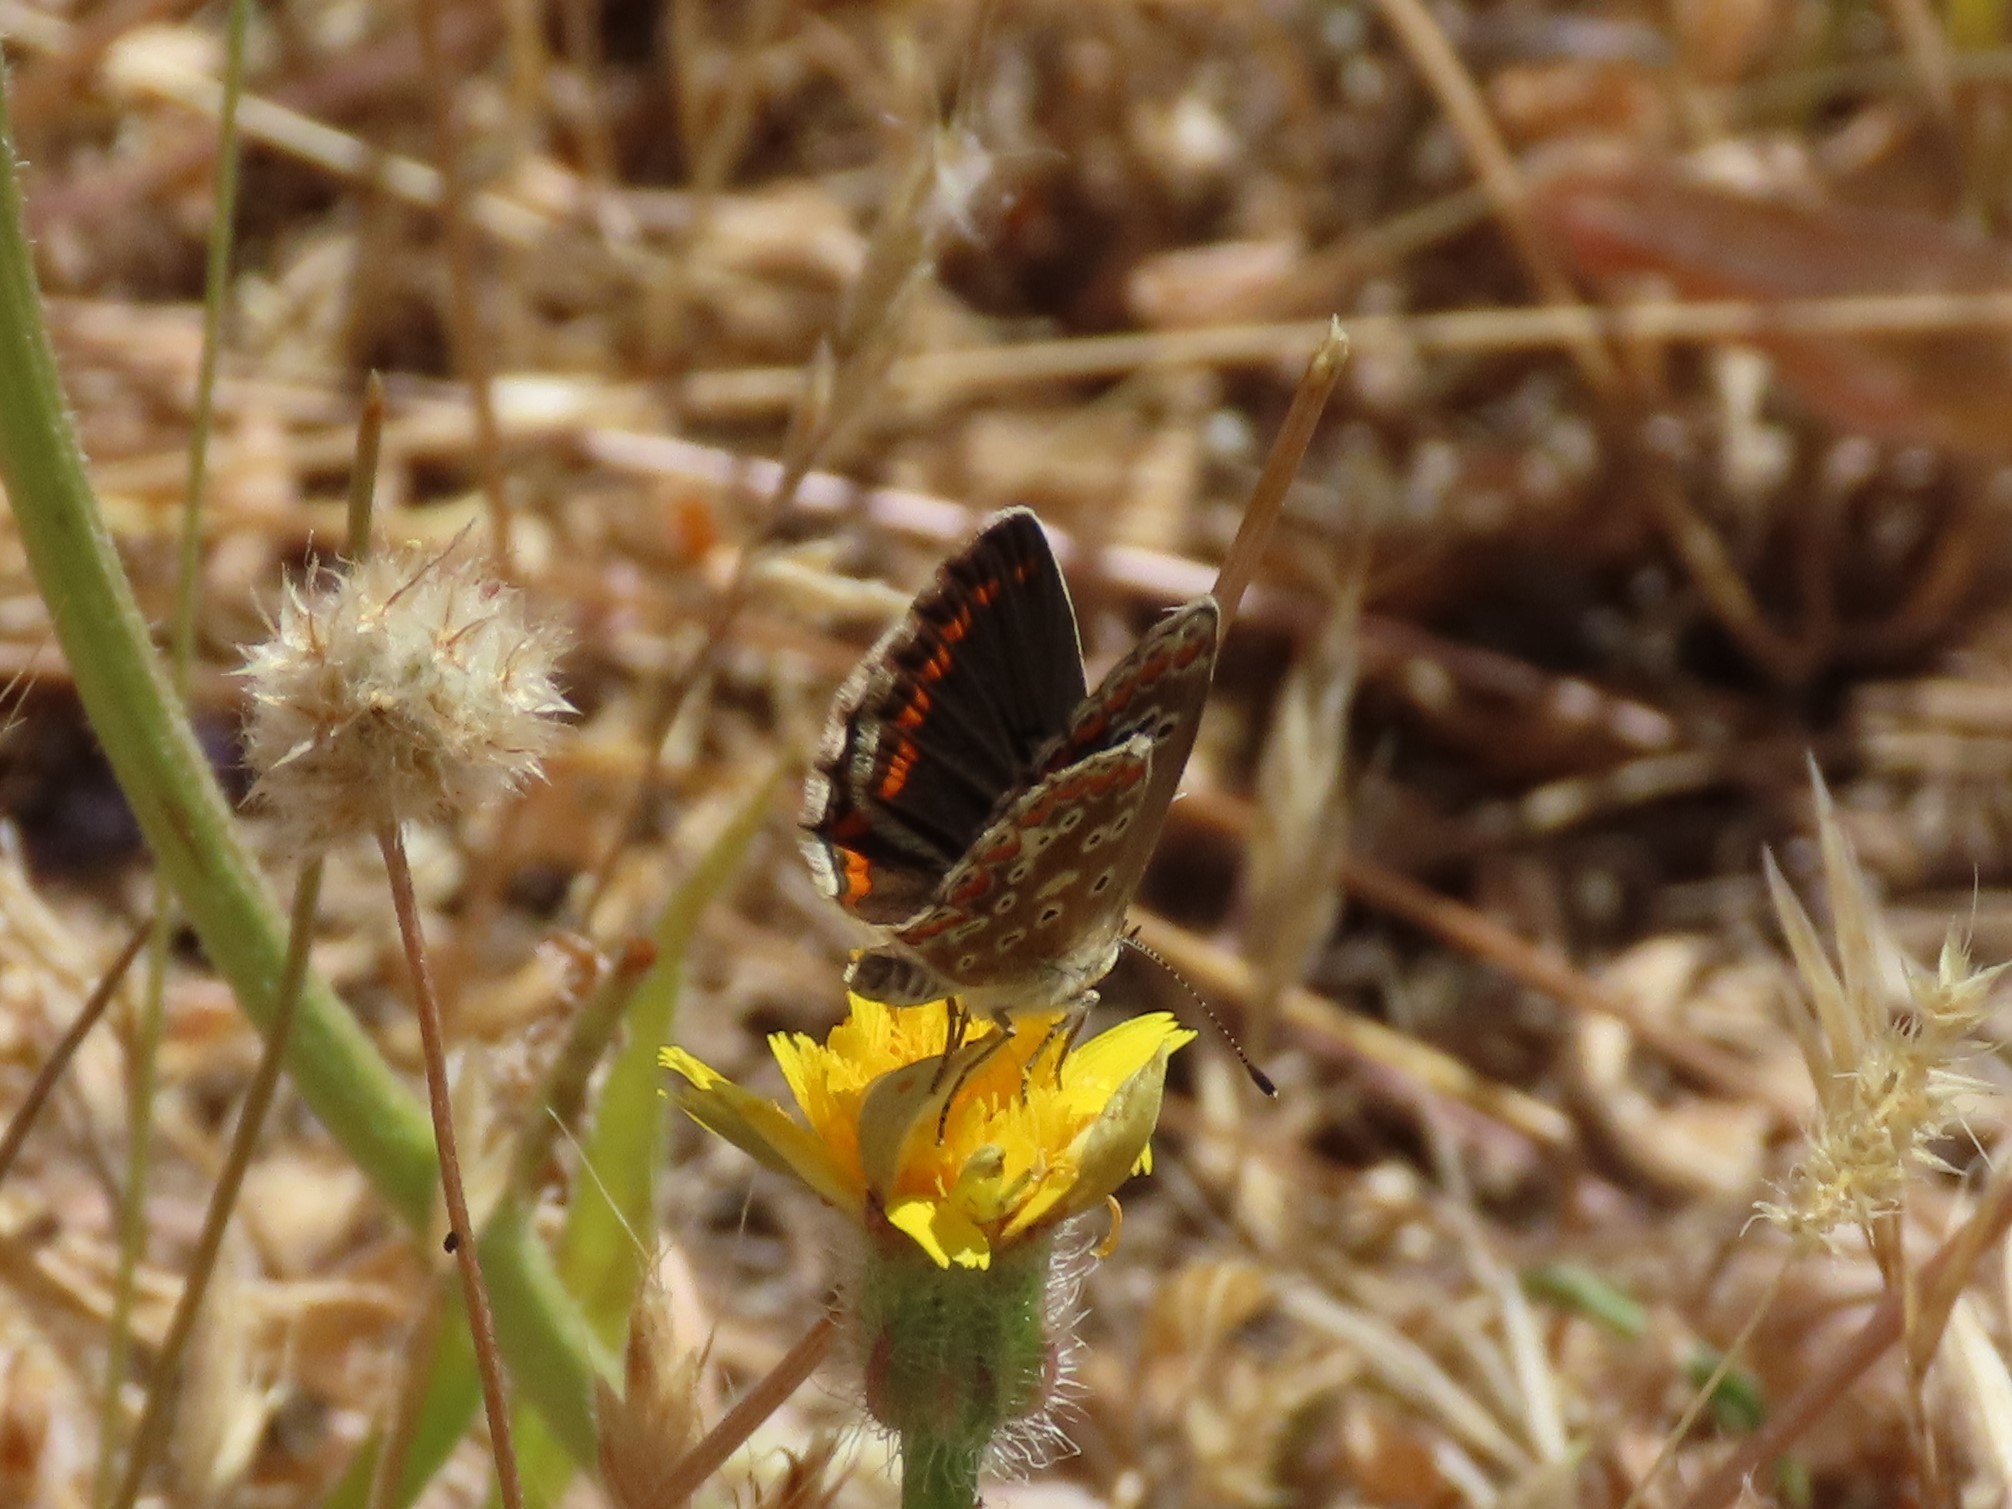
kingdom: Animalia
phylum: Arthropoda
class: Insecta
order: Lepidoptera
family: Lycaenidae
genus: Aricia
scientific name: Aricia cramera
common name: Eschscholtz´s brown  argus
